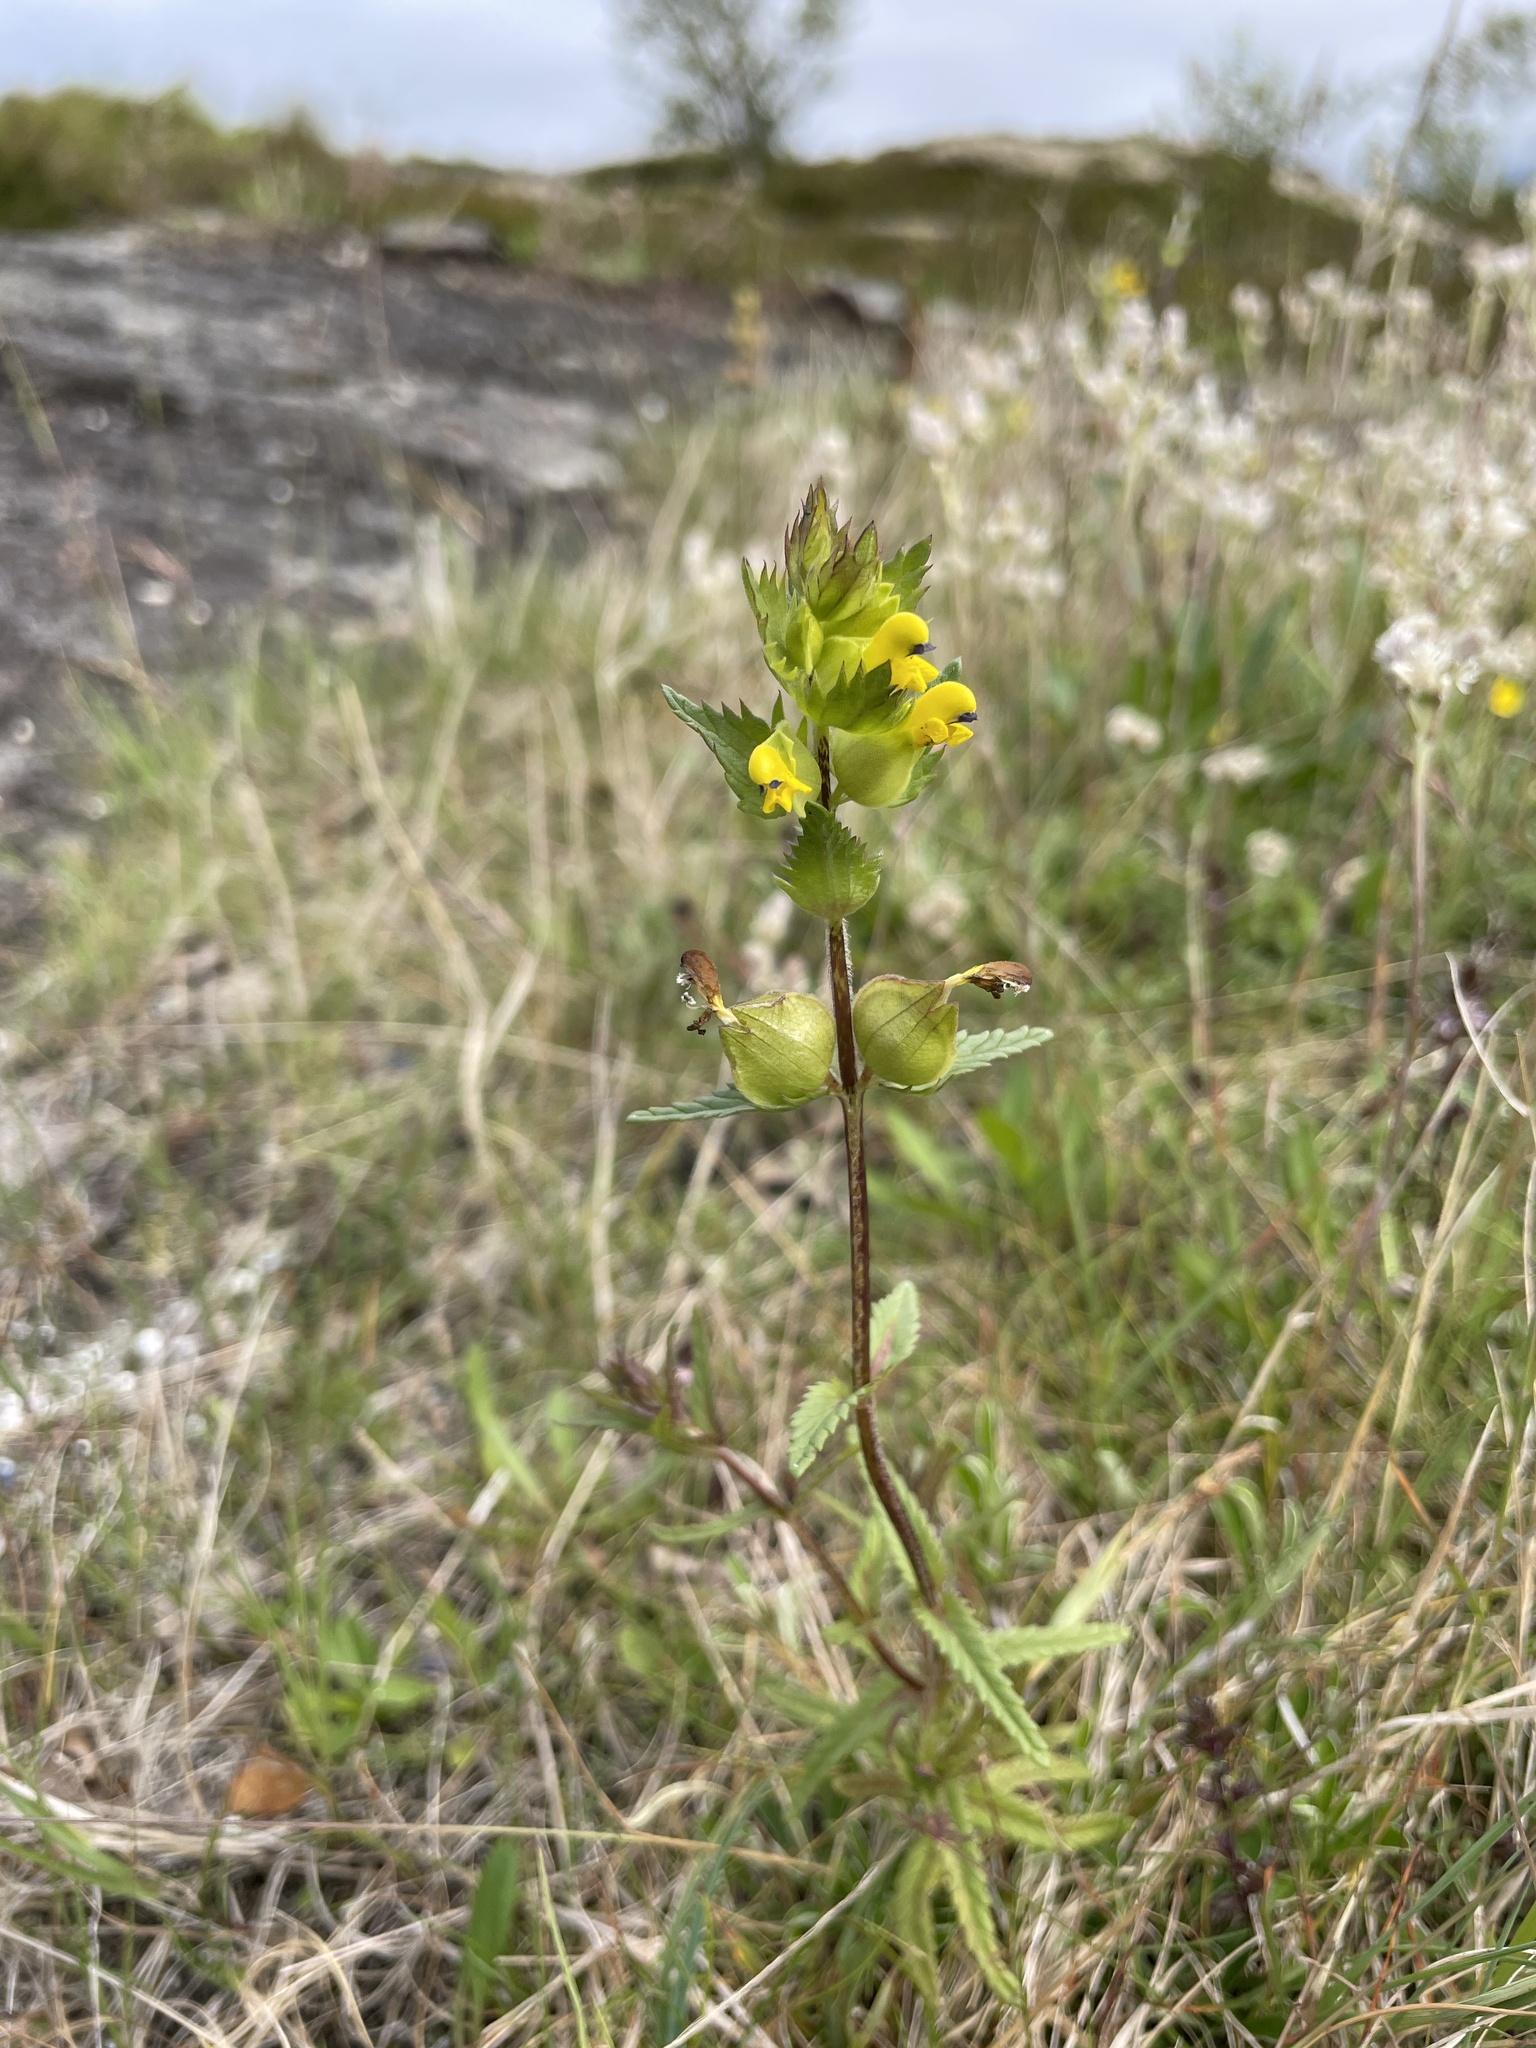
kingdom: Plantae
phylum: Tracheophyta
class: Magnoliopsida
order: Lamiales
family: Orobanchaceae
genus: Rhinanthus
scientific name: Rhinanthus minor
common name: Yellow-rattle
